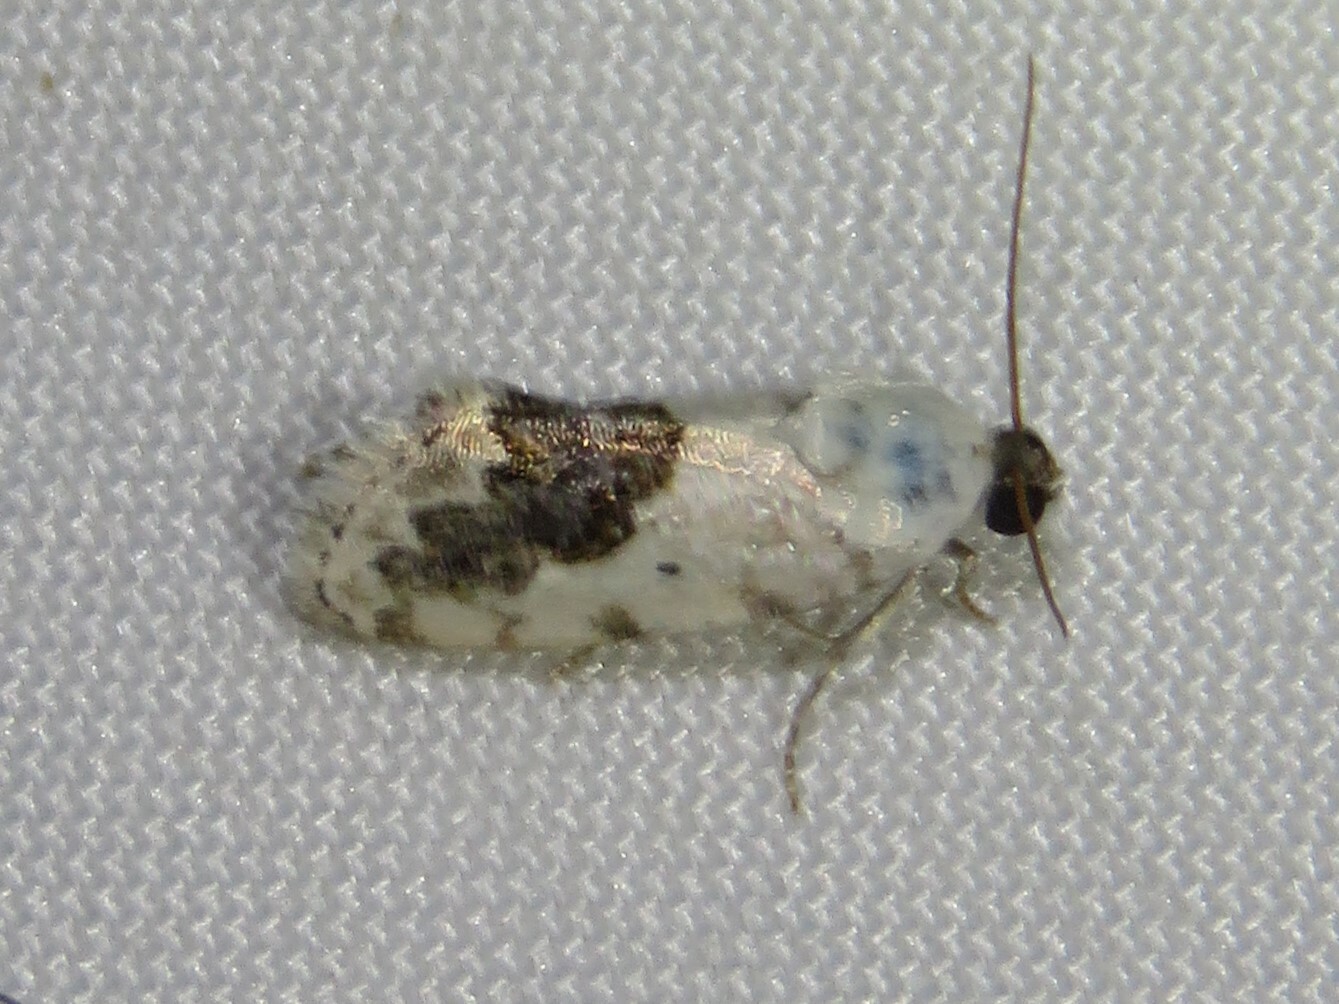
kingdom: Animalia
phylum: Arthropoda
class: Insecta
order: Lepidoptera
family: Noctuidae
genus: Acontia
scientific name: Acontia erastrioides
